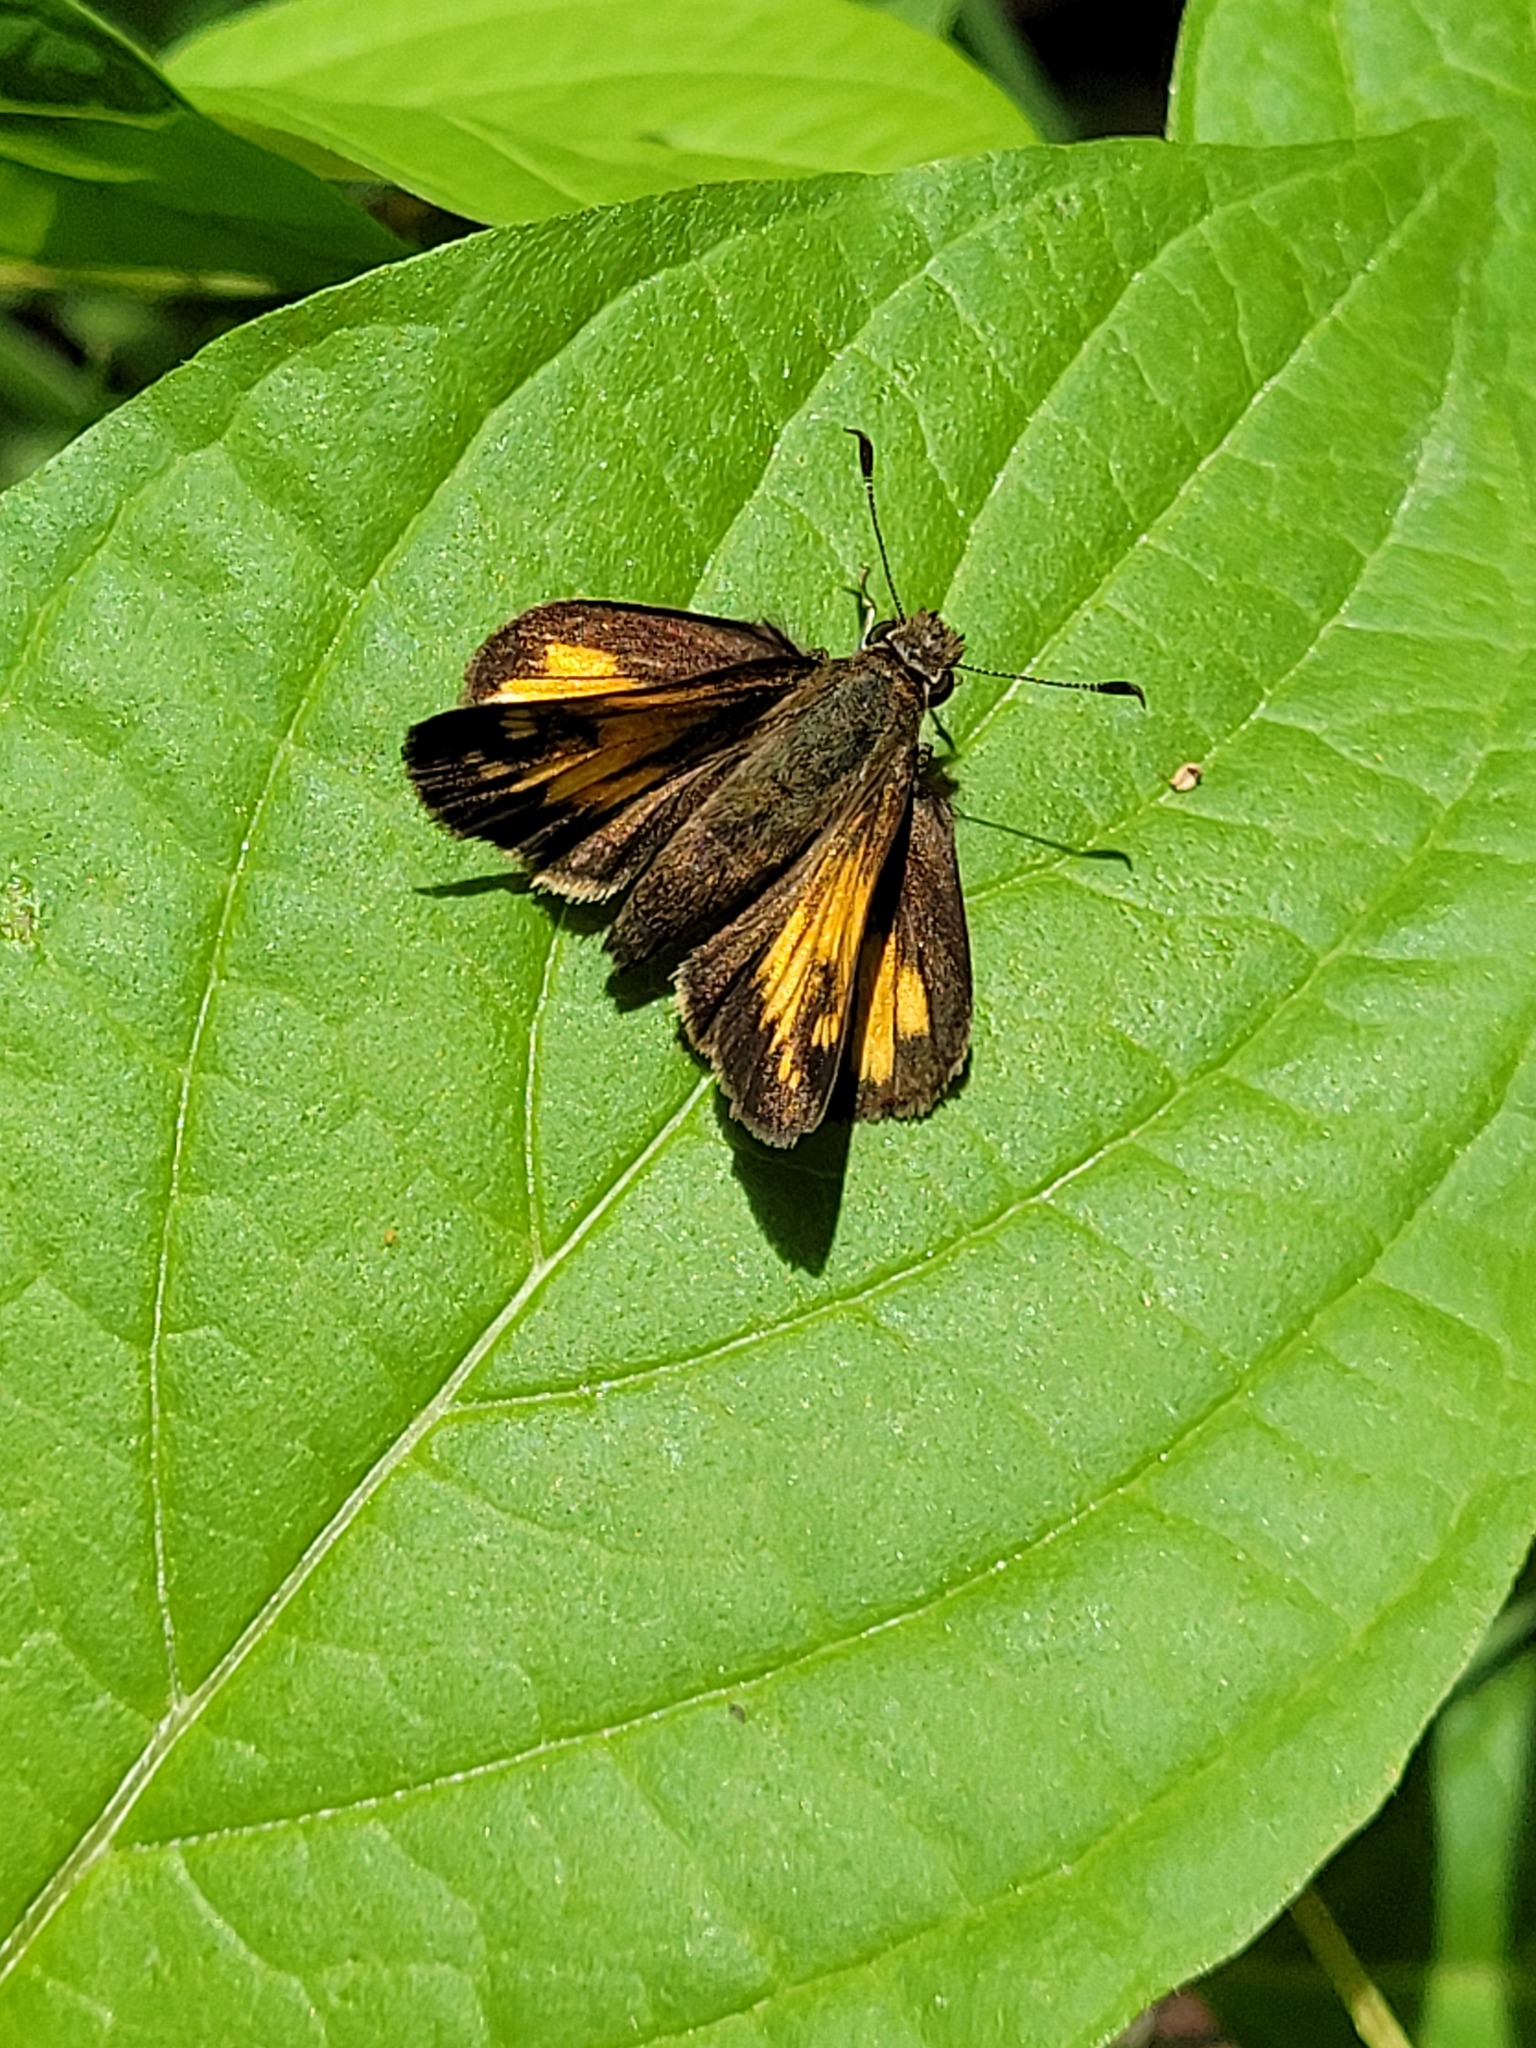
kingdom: Animalia
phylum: Arthropoda
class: Insecta
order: Lepidoptera
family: Hesperiidae
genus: Lon
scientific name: Lon hobomok
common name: Hobomok skipper
